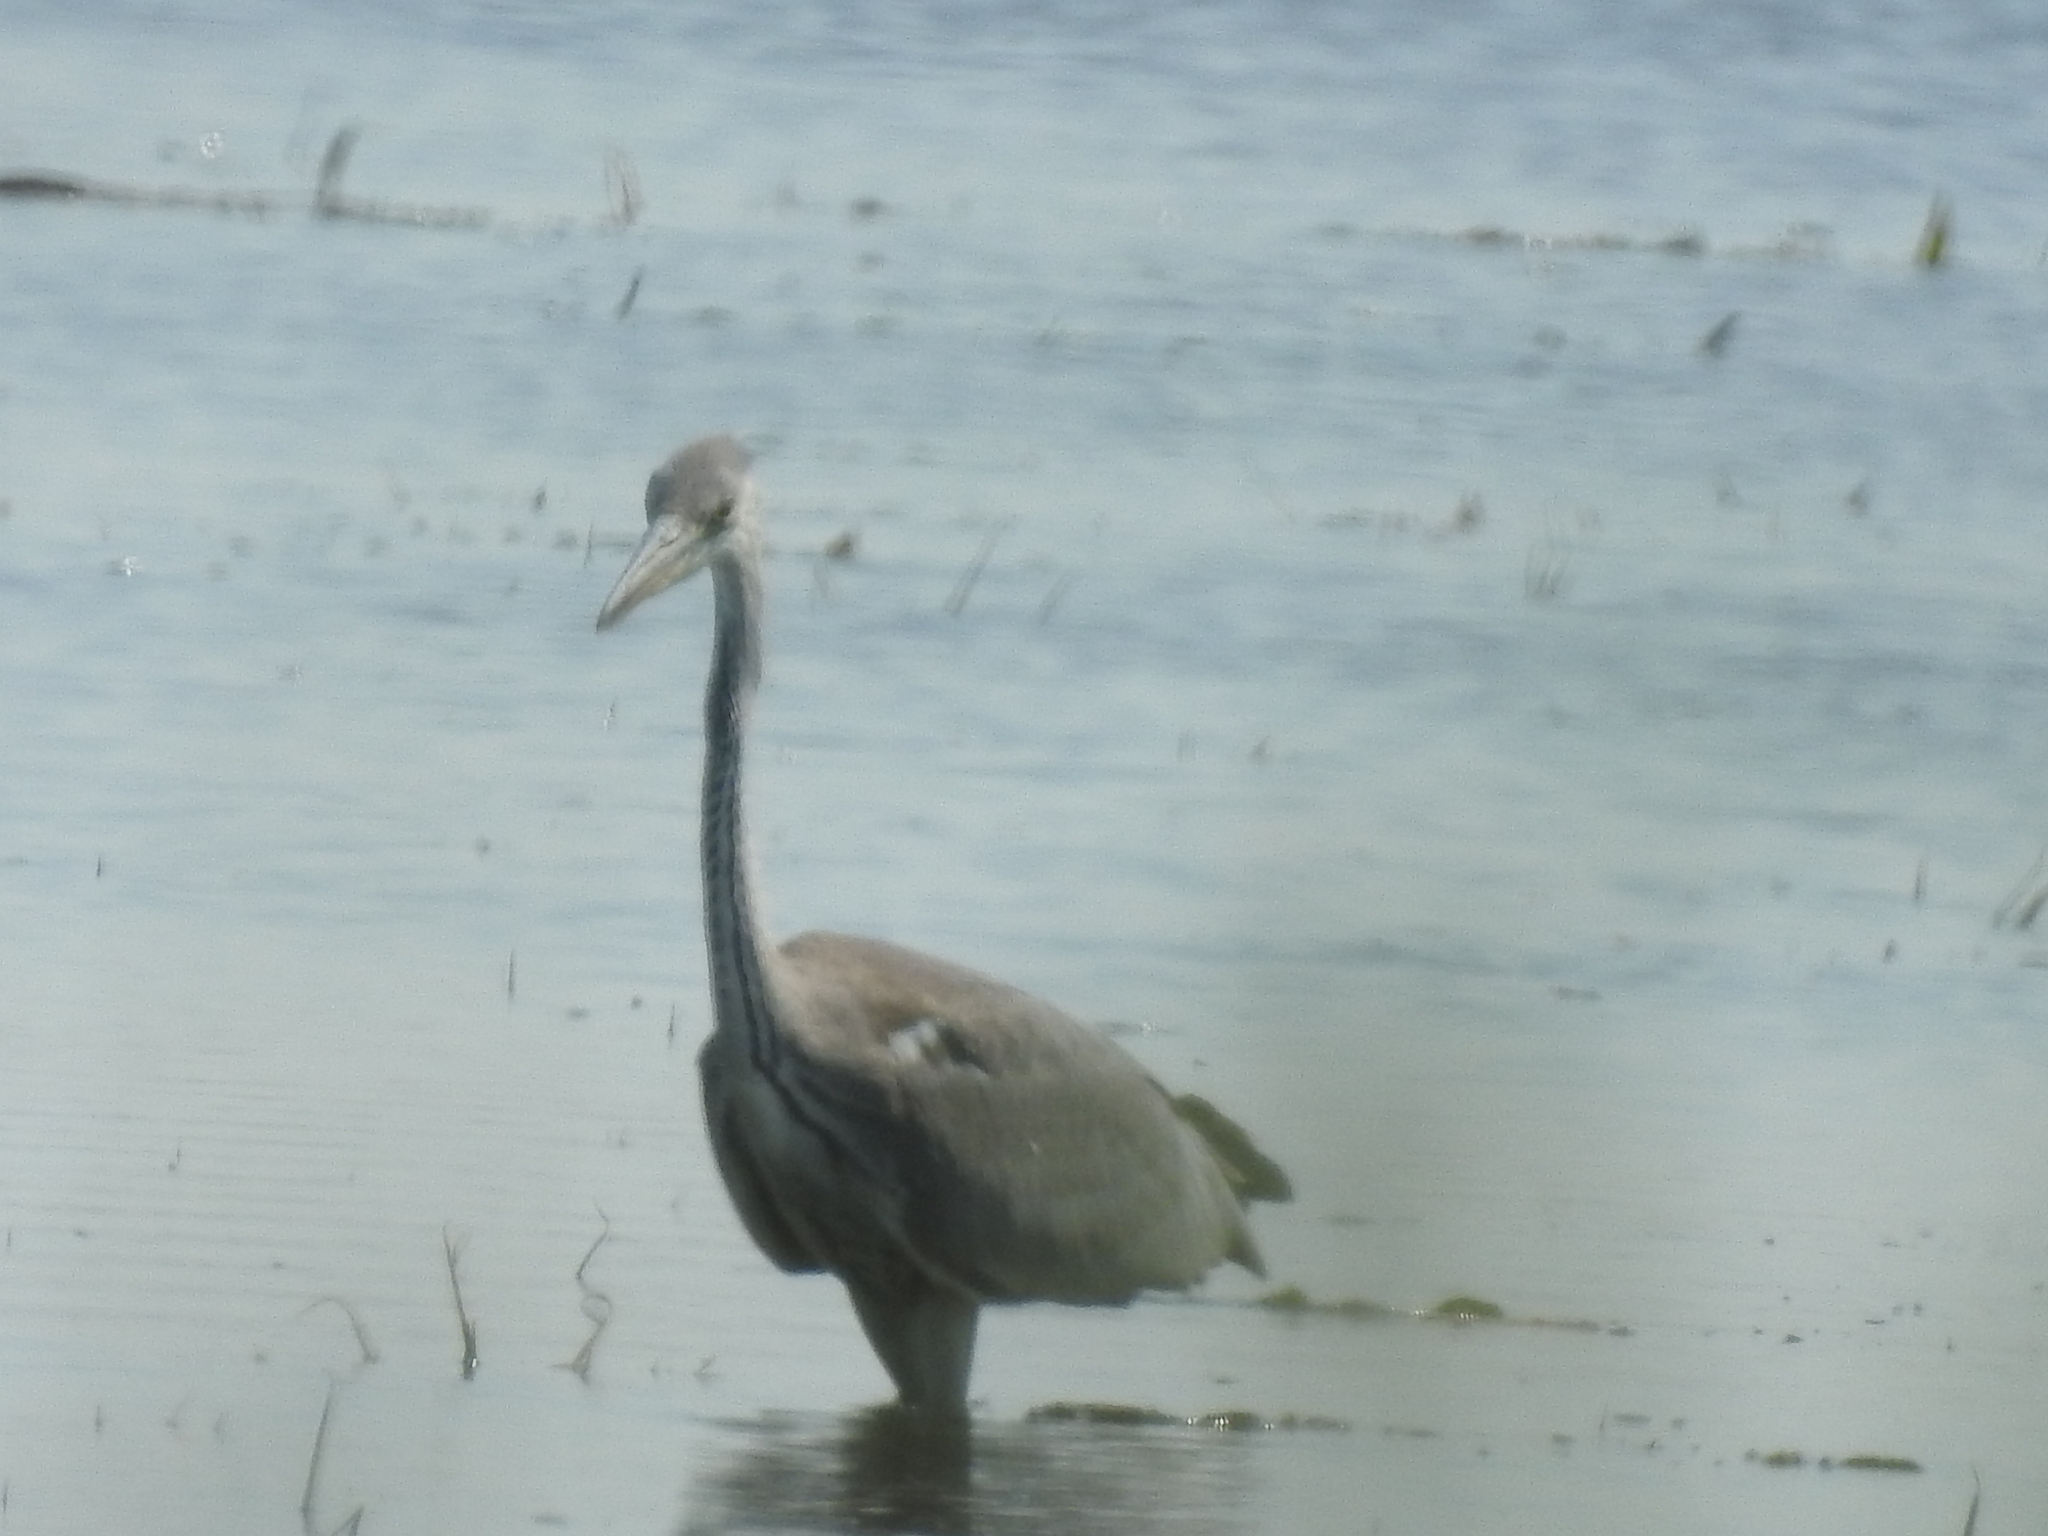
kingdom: Animalia
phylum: Chordata
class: Aves
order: Pelecaniformes
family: Ardeidae
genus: Ardea
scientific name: Ardea cinerea
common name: Grey heron
